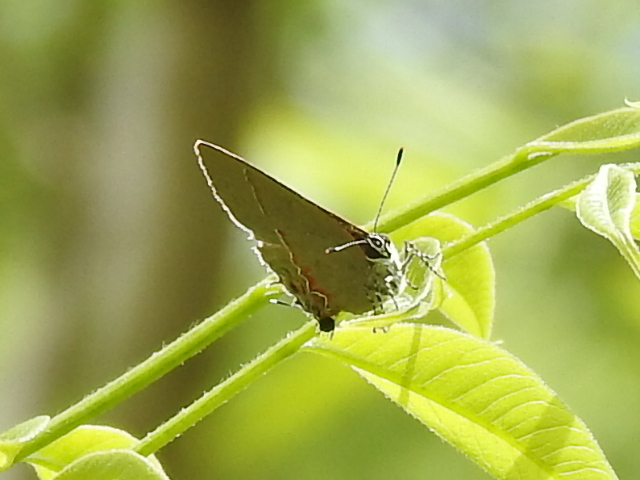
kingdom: Animalia
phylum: Arthropoda
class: Insecta
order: Lepidoptera
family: Lycaenidae
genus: Calycopis
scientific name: Calycopis isobeon
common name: Dusky-blue groundstreak
